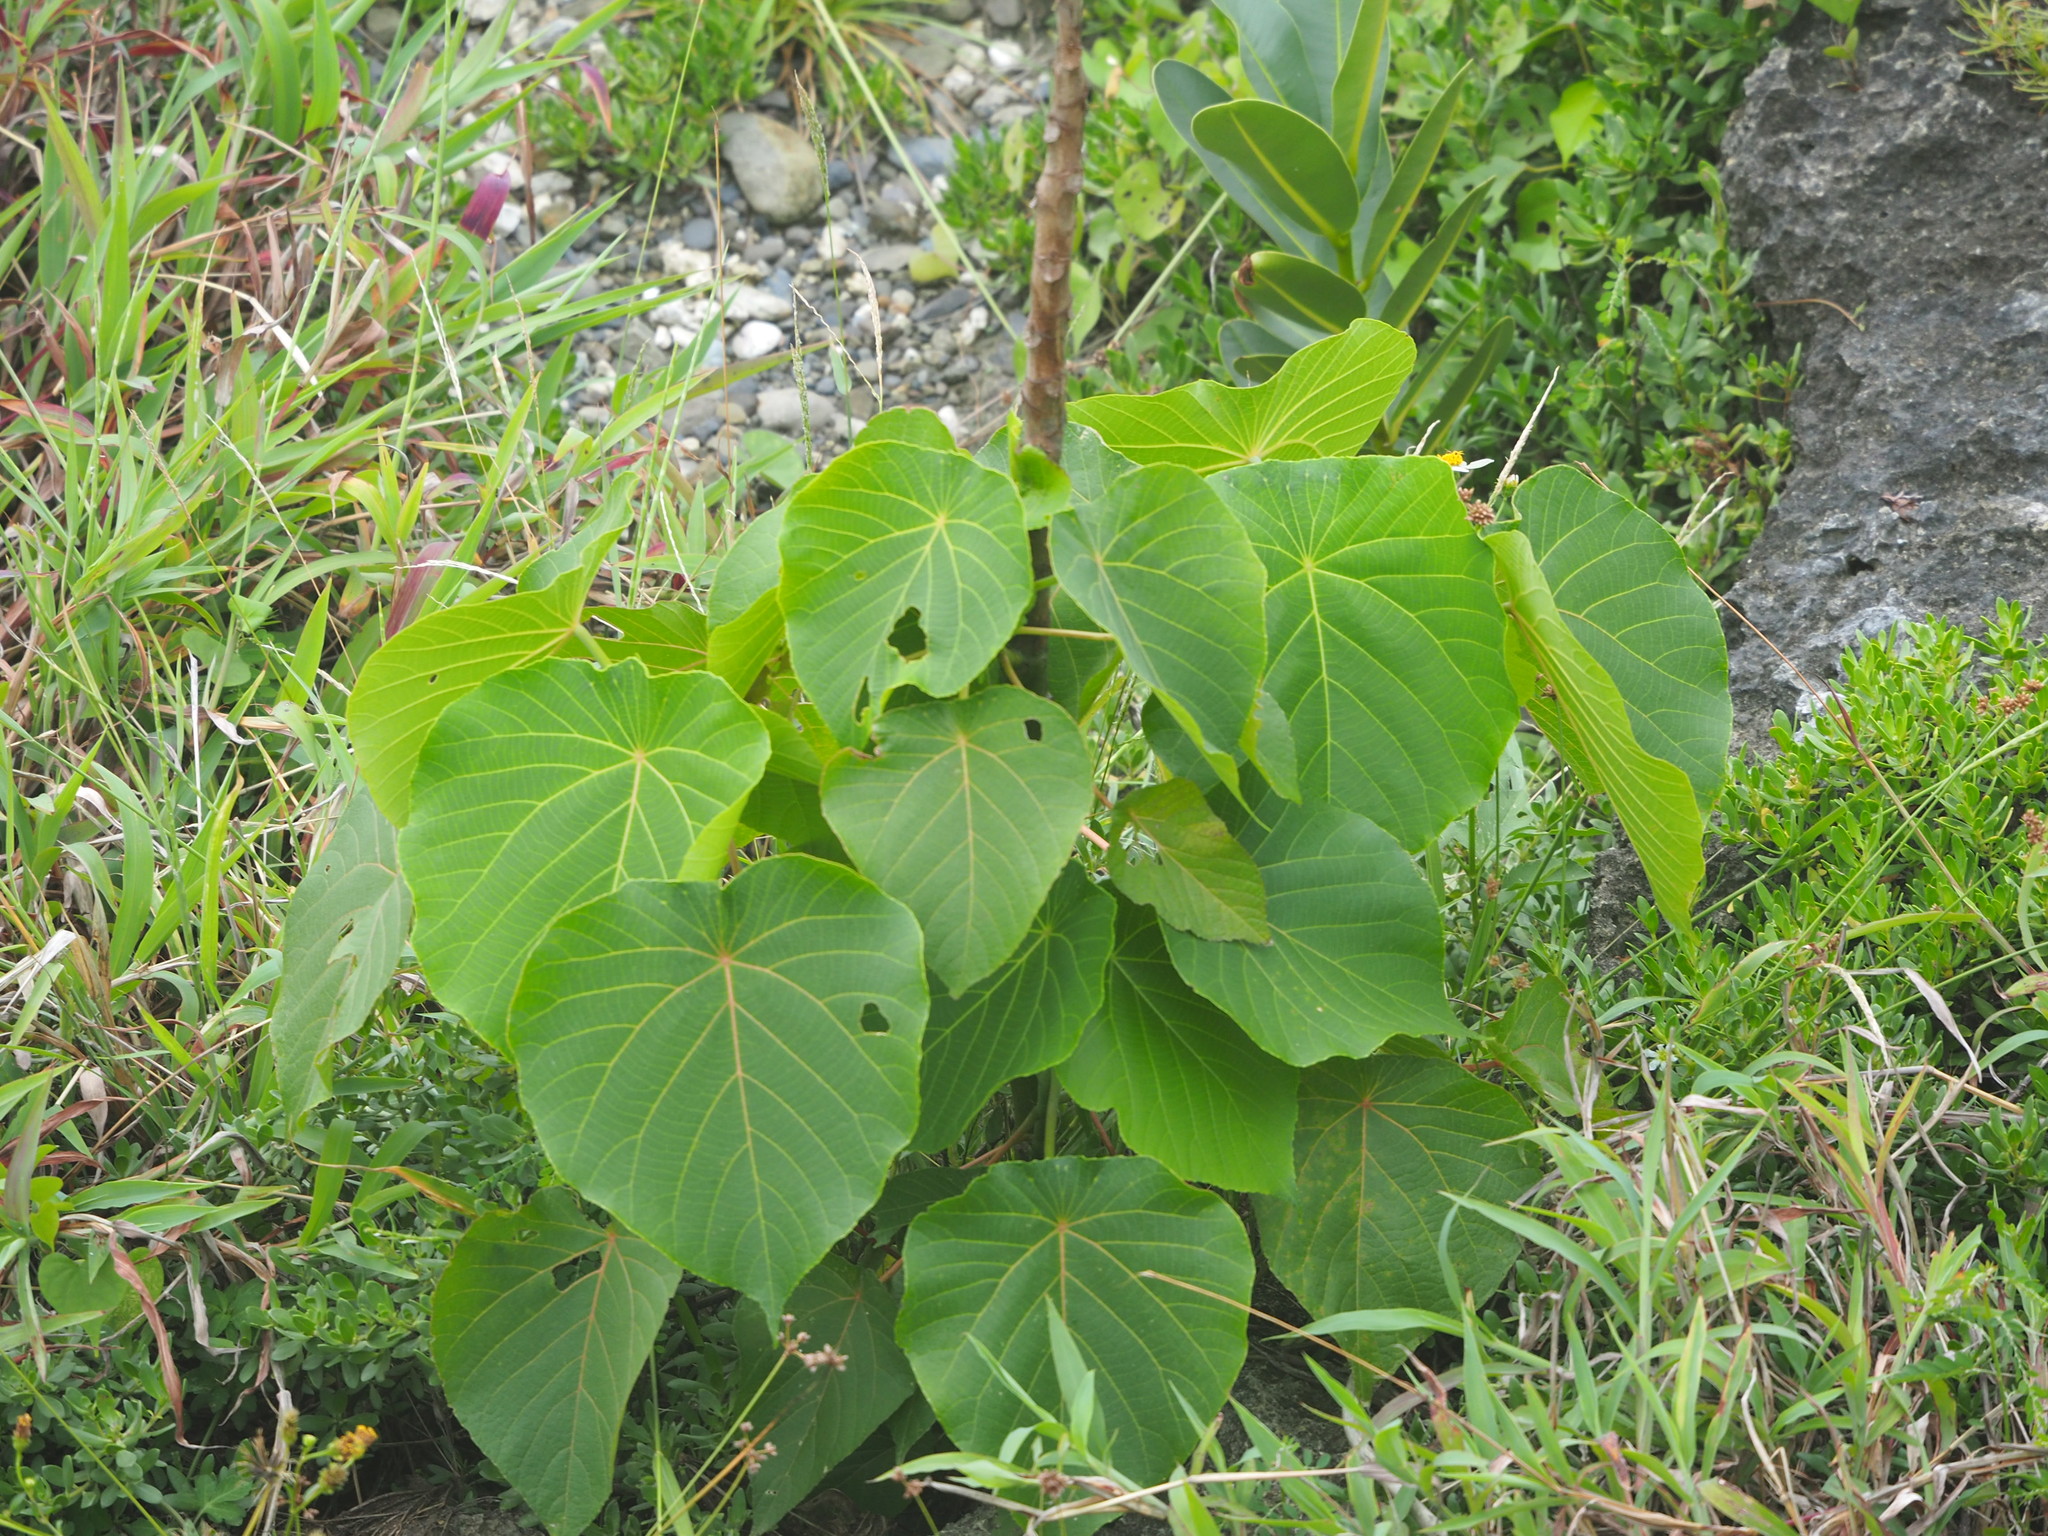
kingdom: Plantae
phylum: Tracheophyta
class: Magnoliopsida
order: Malpighiales
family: Euphorbiaceae
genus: Macaranga
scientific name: Macaranga tanarius
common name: Parasol leaf tree
